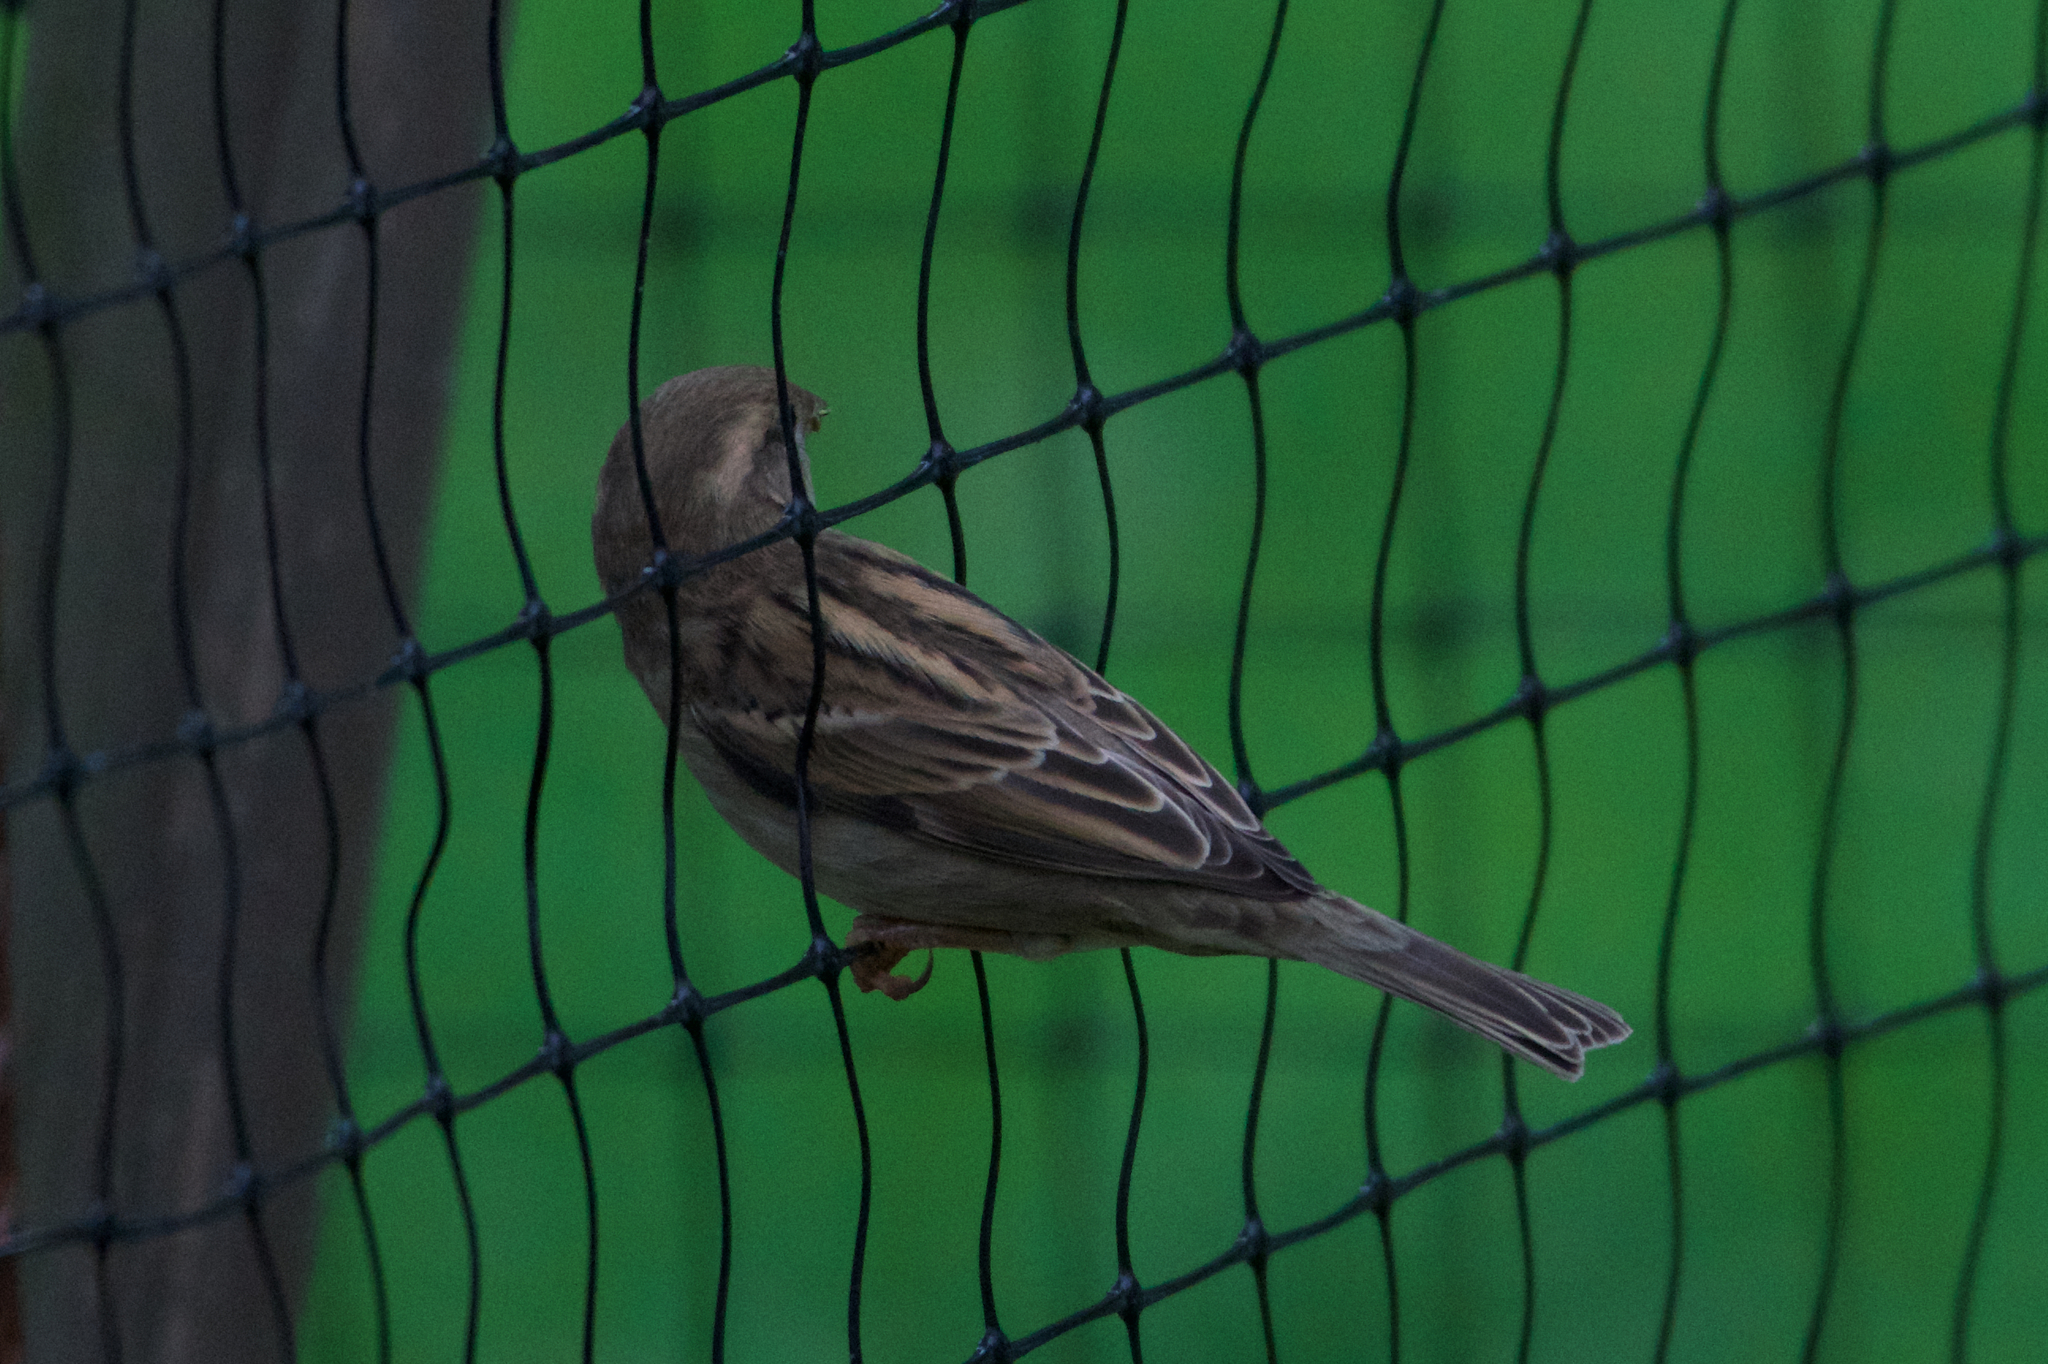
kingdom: Animalia
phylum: Chordata
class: Aves
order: Passeriformes
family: Passeridae
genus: Passer
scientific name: Passer domesticus
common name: House sparrow
